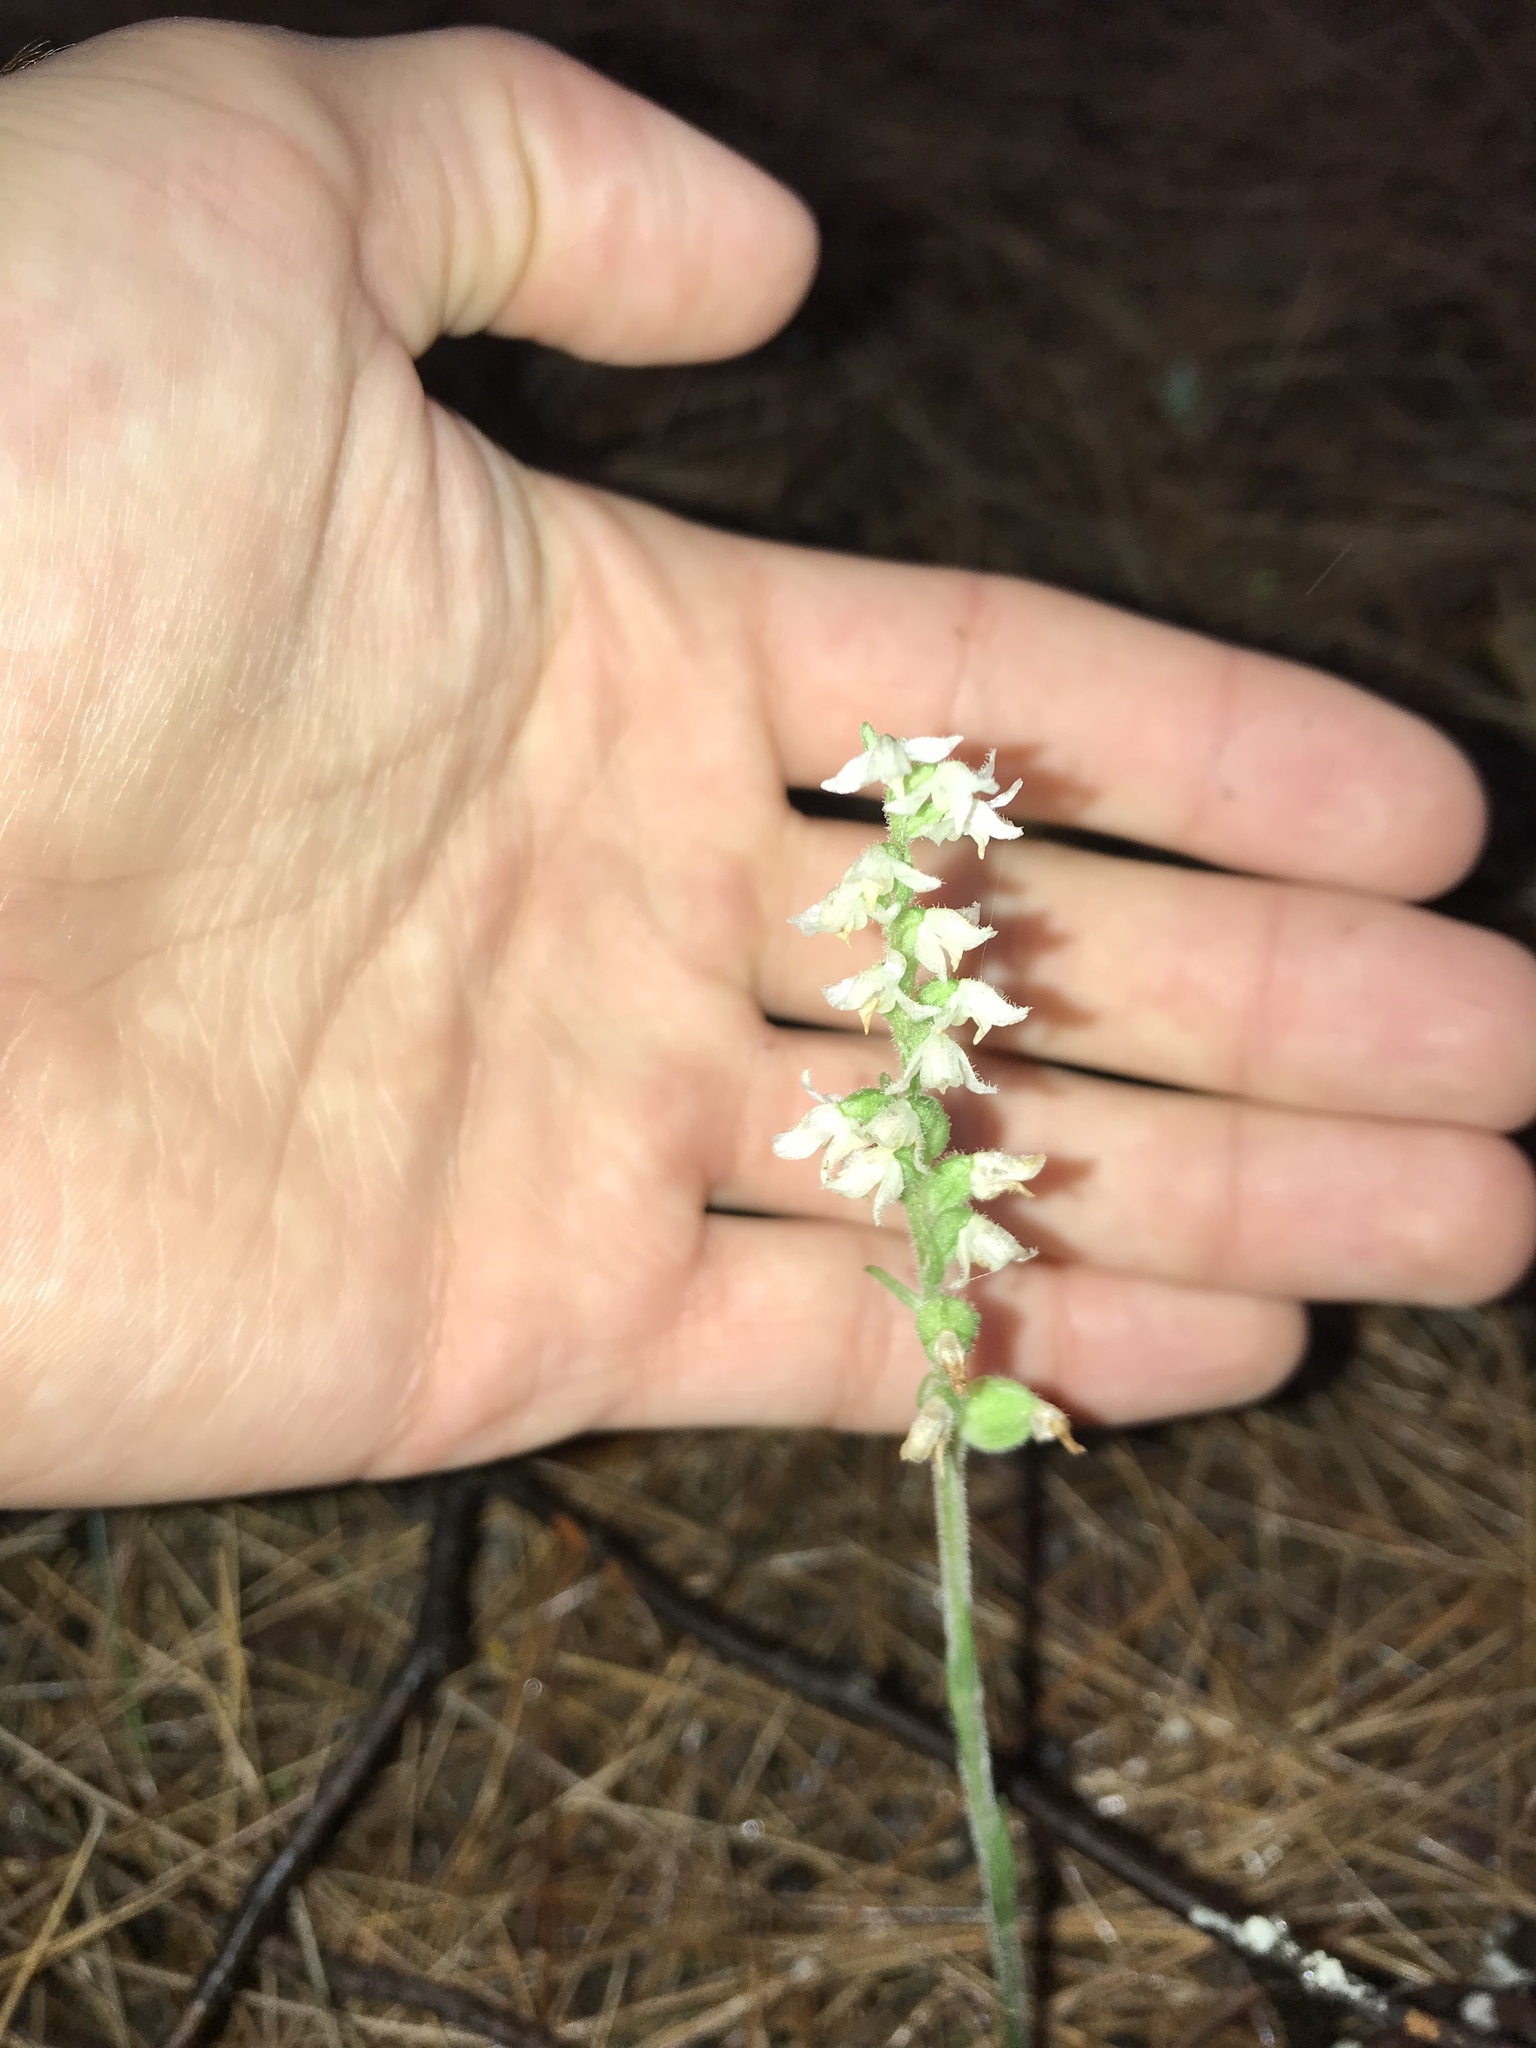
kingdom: Plantae
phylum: Tracheophyta
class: Liliopsida
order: Asparagales
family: Orchidaceae
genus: Goodyera
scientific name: Goodyera repens
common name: Creeping lady's-tresses
